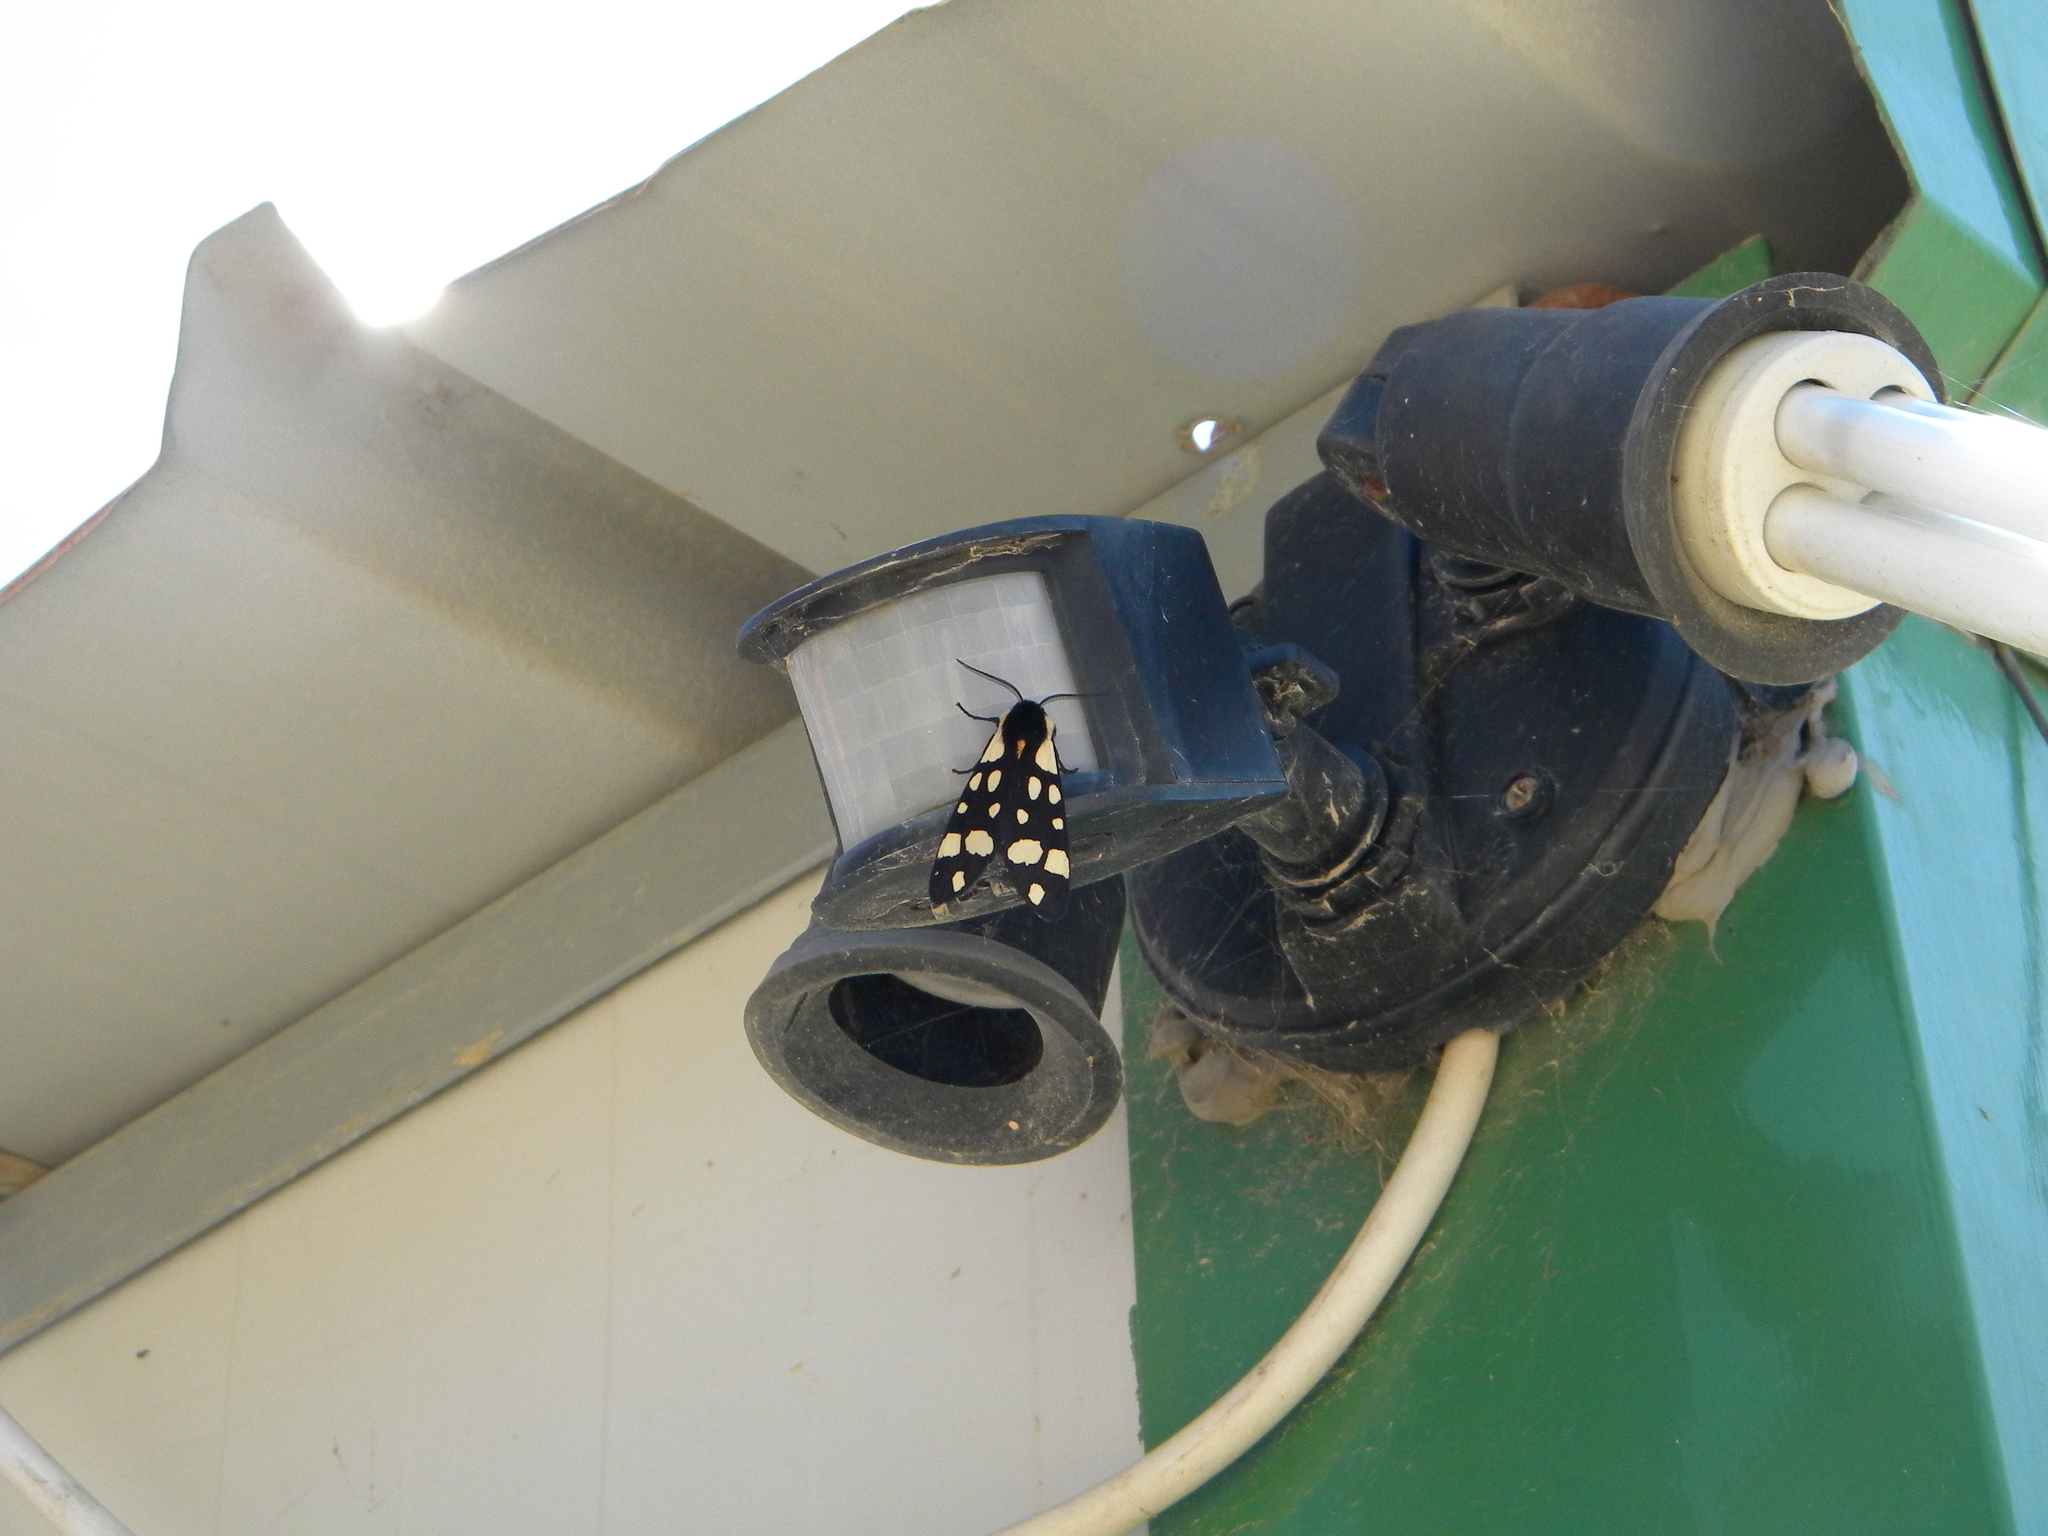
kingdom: Animalia
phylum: Arthropoda
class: Insecta
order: Lepidoptera
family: Erebidae
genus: Epicallia
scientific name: Epicallia villica
